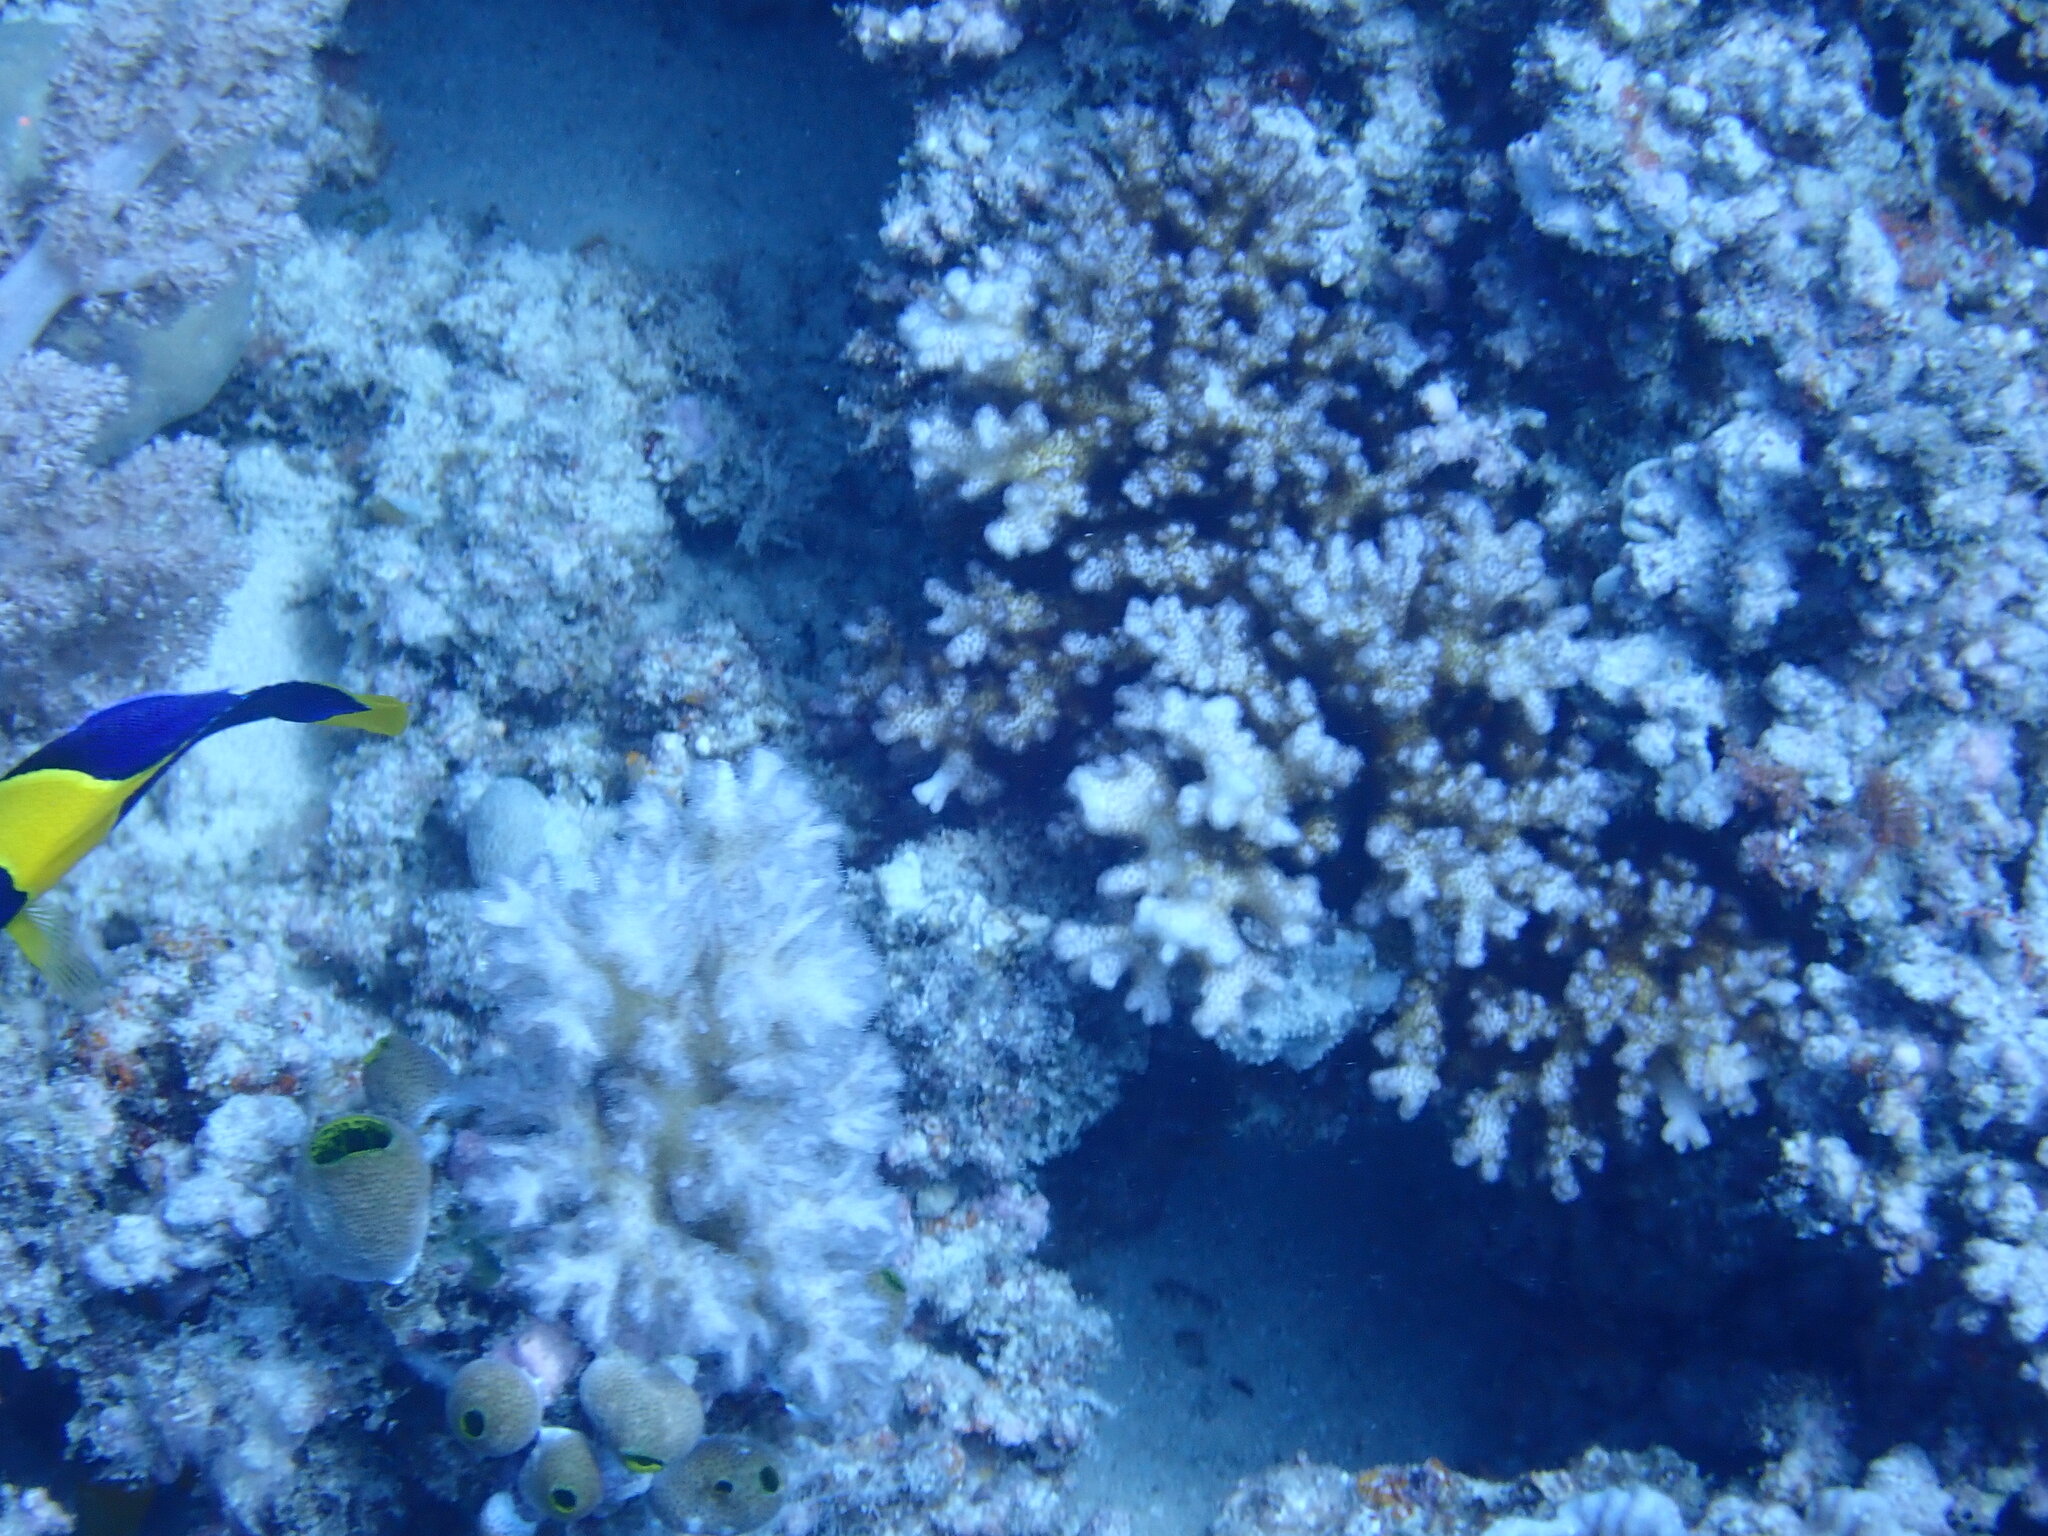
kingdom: Animalia
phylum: Chordata
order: Perciformes
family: Pomacanthidae
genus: Centropyge
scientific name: Centropyge bicolor
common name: Bicolor angelfish
